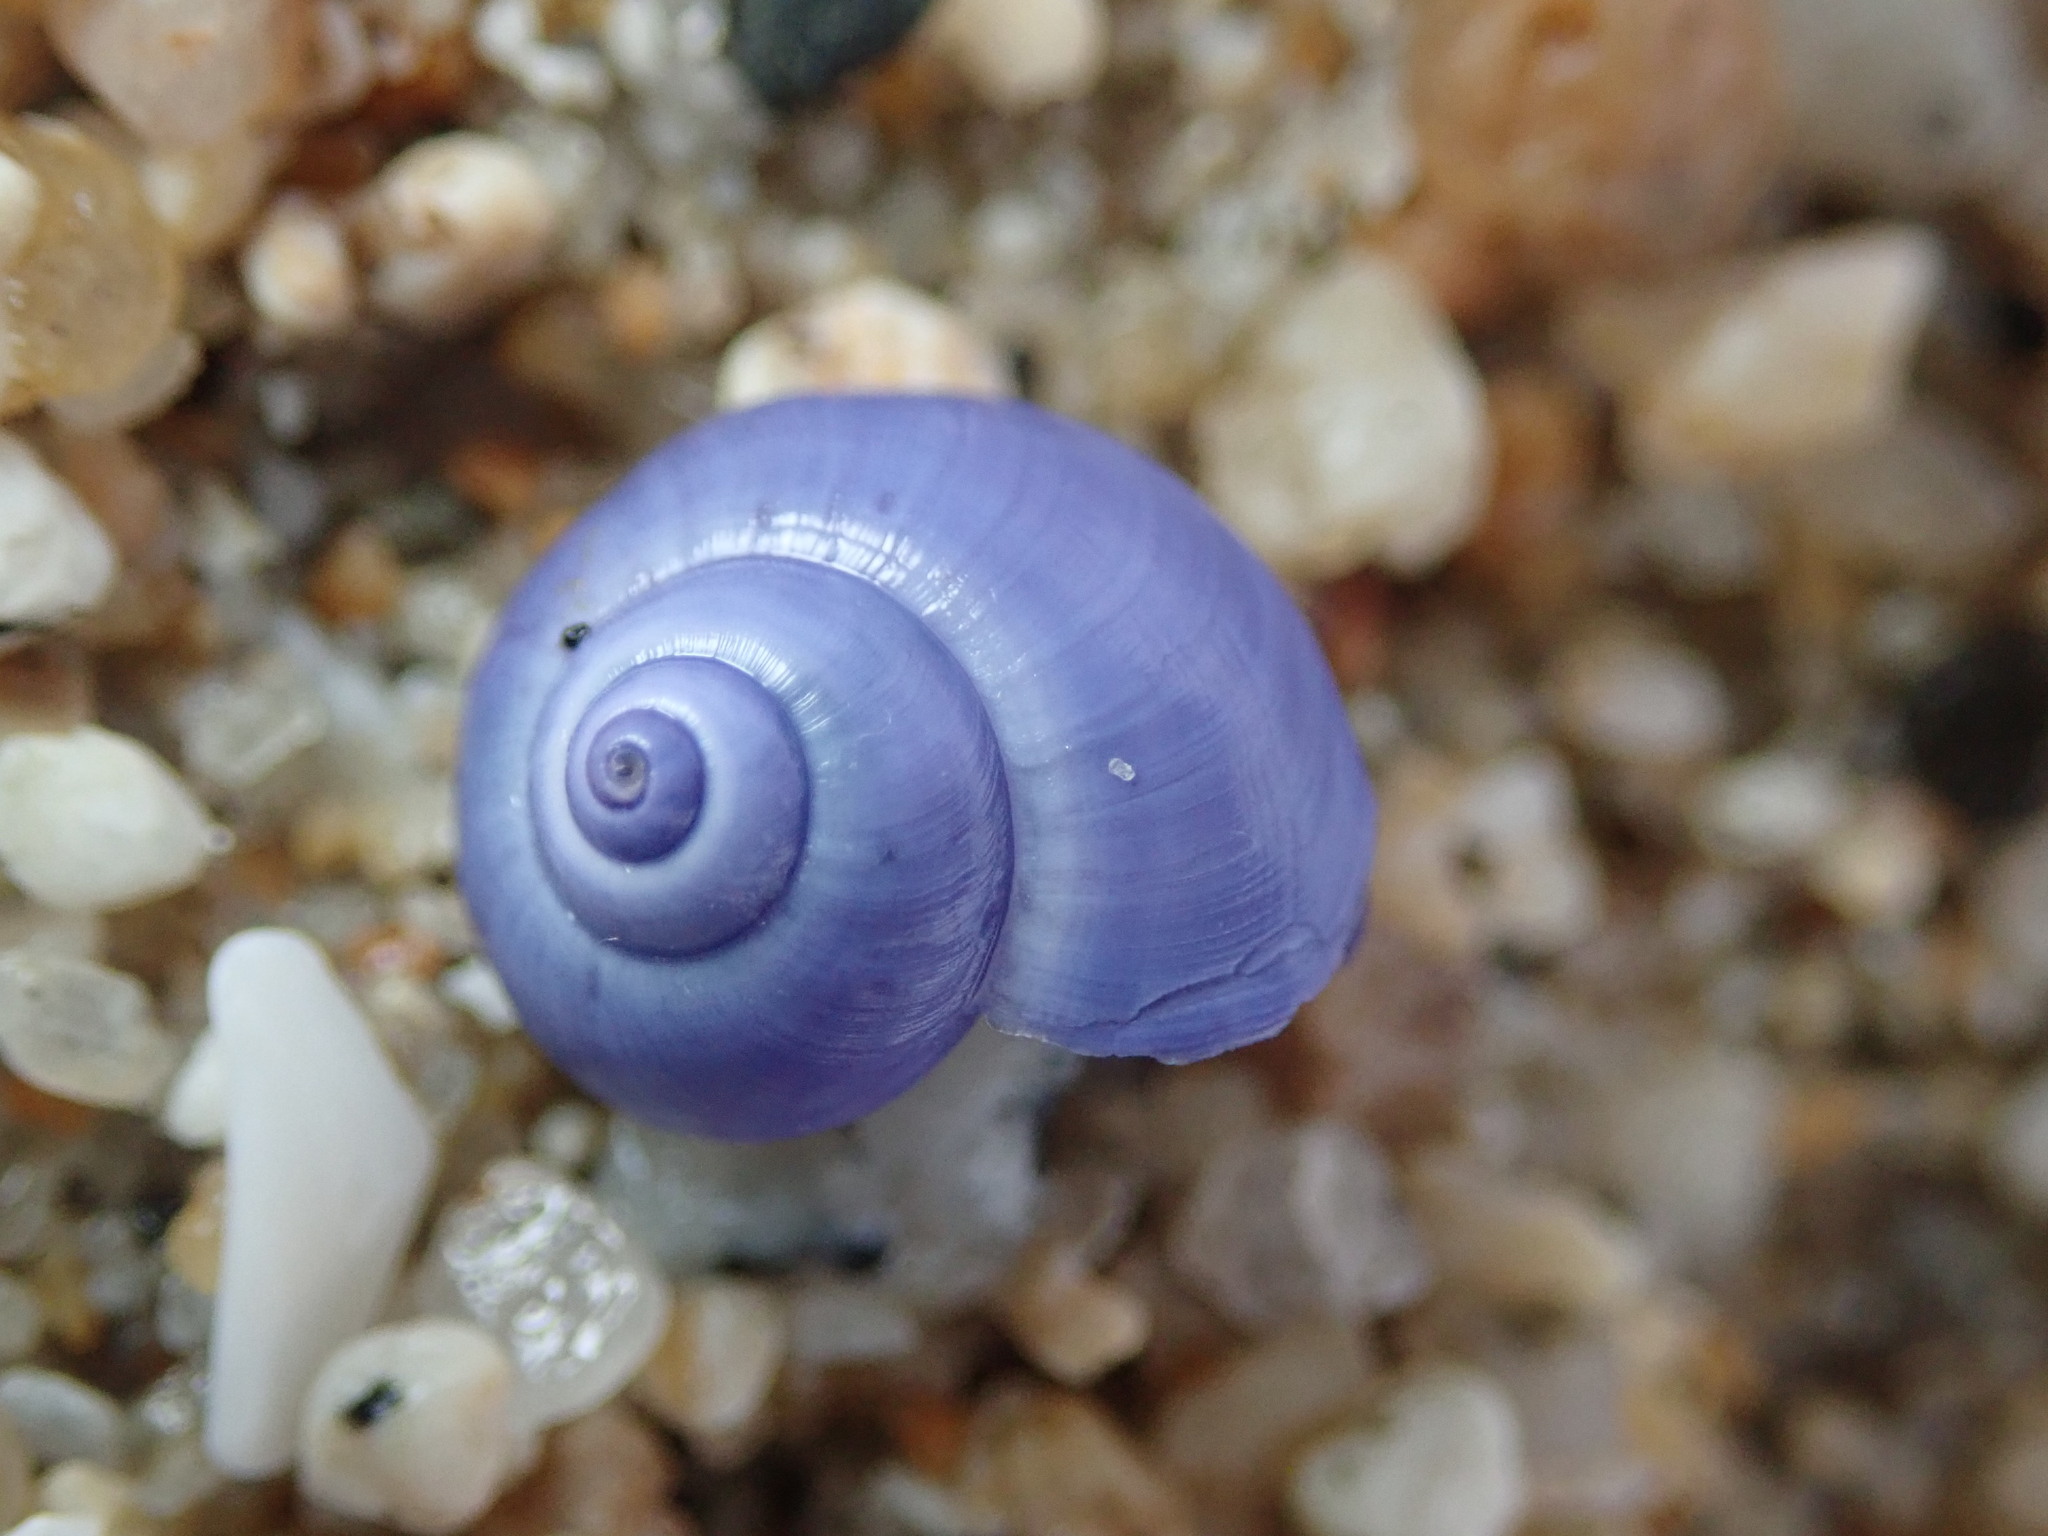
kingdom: Animalia
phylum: Mollusca
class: Gastropoda
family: Epitoniidae
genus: Janthina
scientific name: Janthina umbilicata
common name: Elongate janthina
